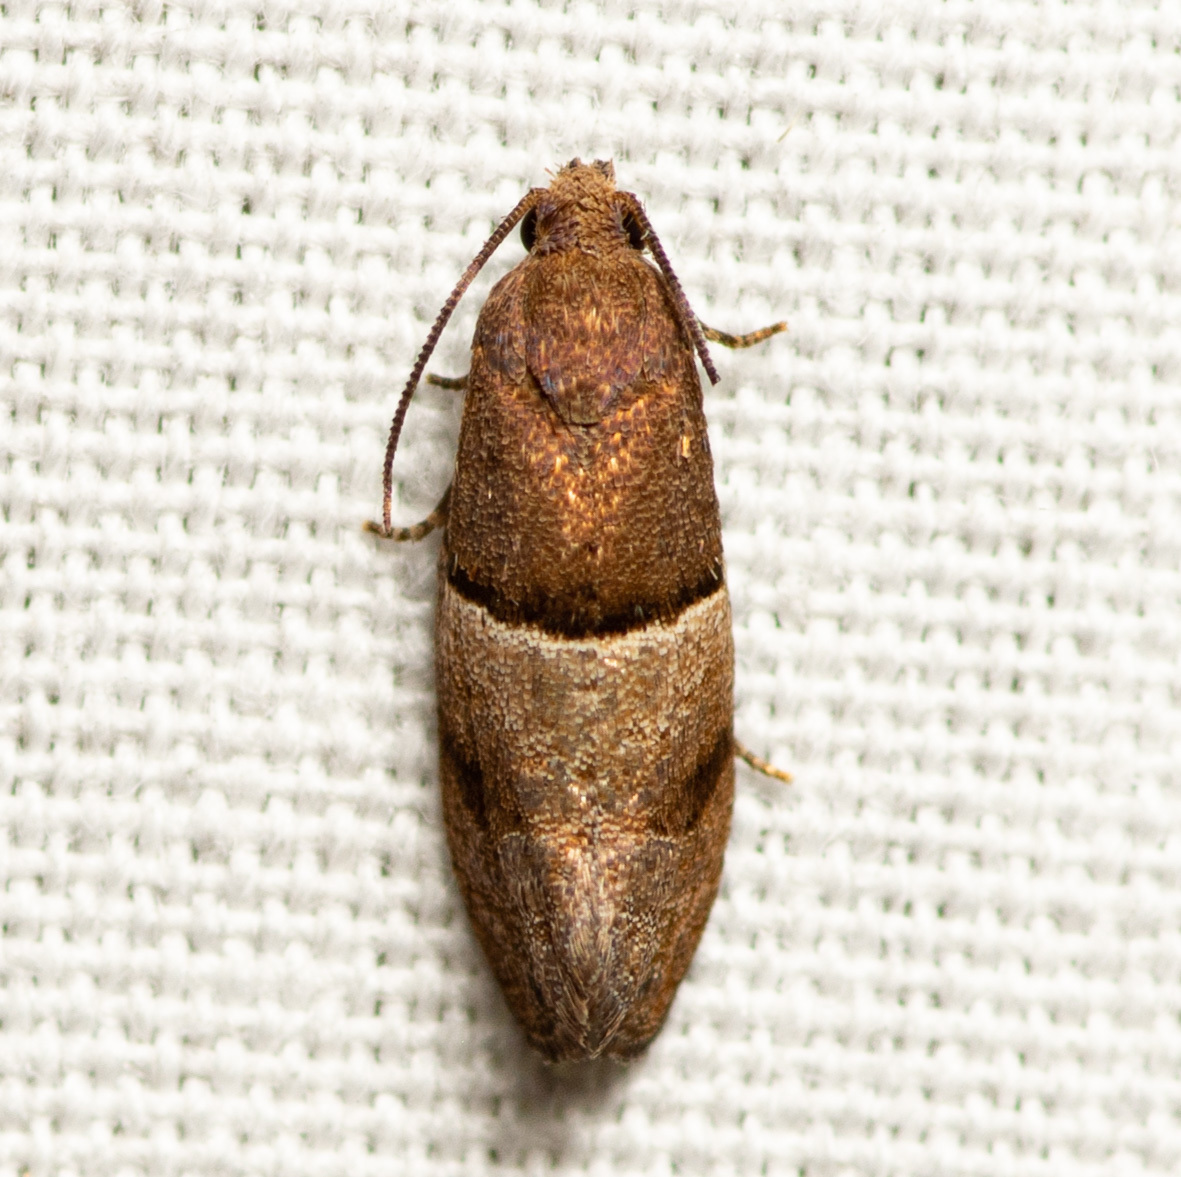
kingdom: Animalia
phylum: Arthropoda
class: Insecta
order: Lepidoptera
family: Tortricidae
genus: Larisa
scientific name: Larisa subsolana
